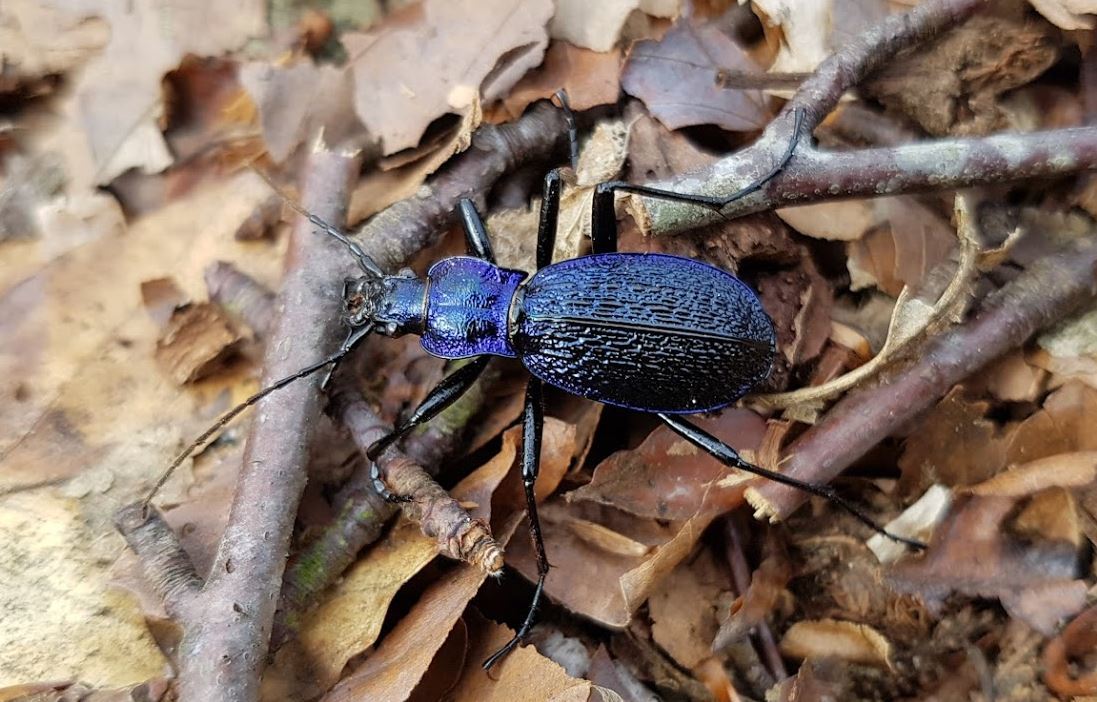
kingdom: Animalia
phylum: Arthropoda
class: Insecta
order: Coleoptera
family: Carabidae
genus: Carabus
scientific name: Carabus intricatus
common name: Blue ground beetle
